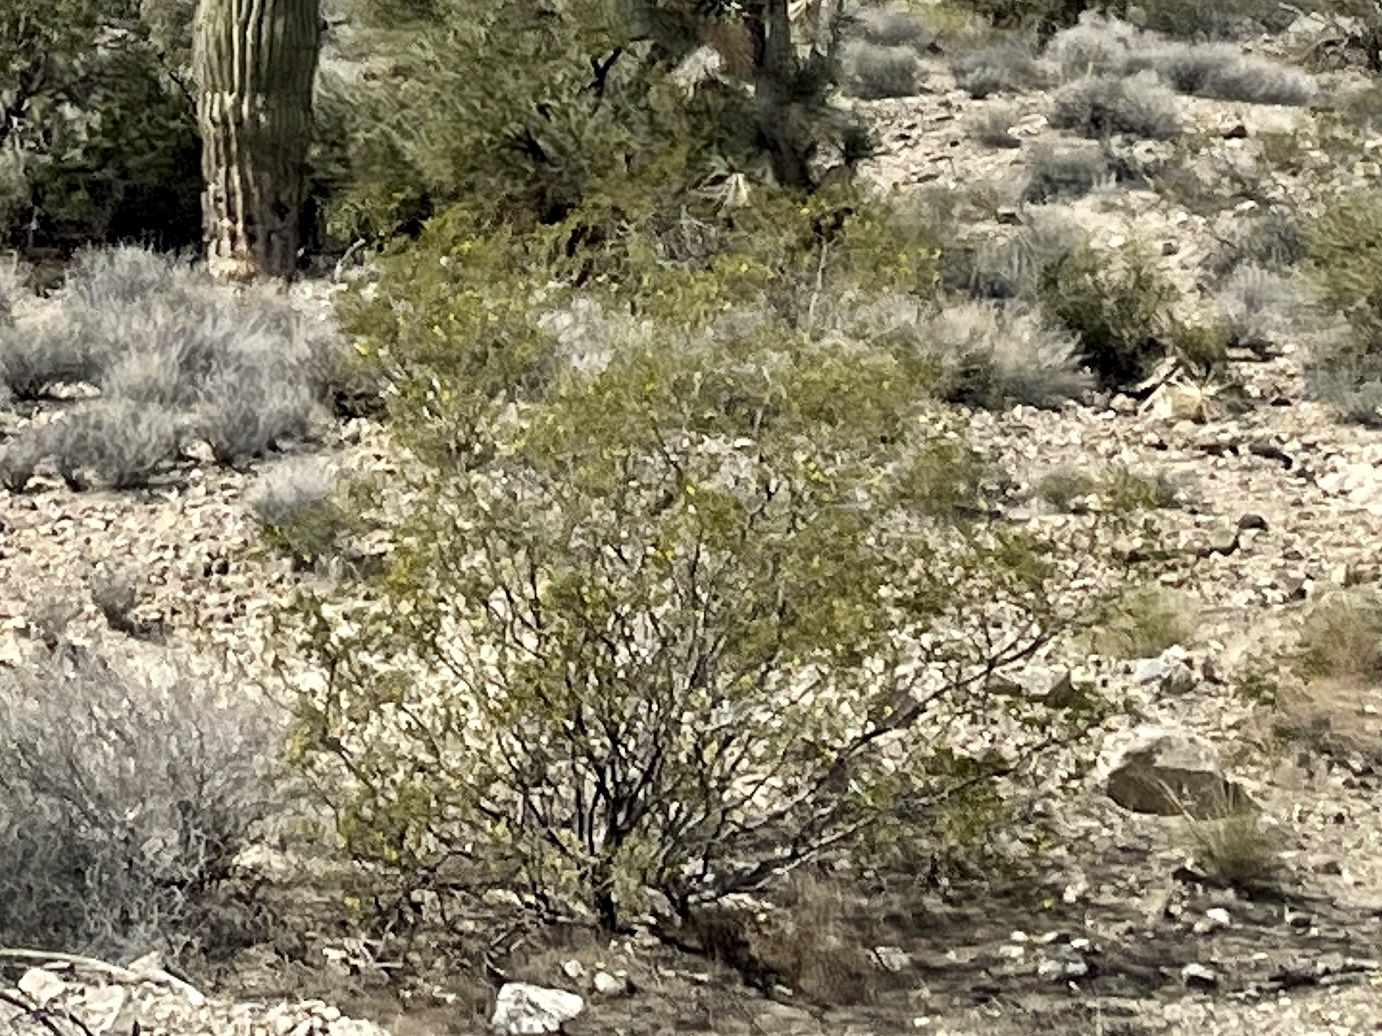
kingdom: Plantae
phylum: Tracheophyta
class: Magnoliopsida
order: Zygophyllales
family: Zygophyllaceae
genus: Larrea
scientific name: Larrea tridentata
